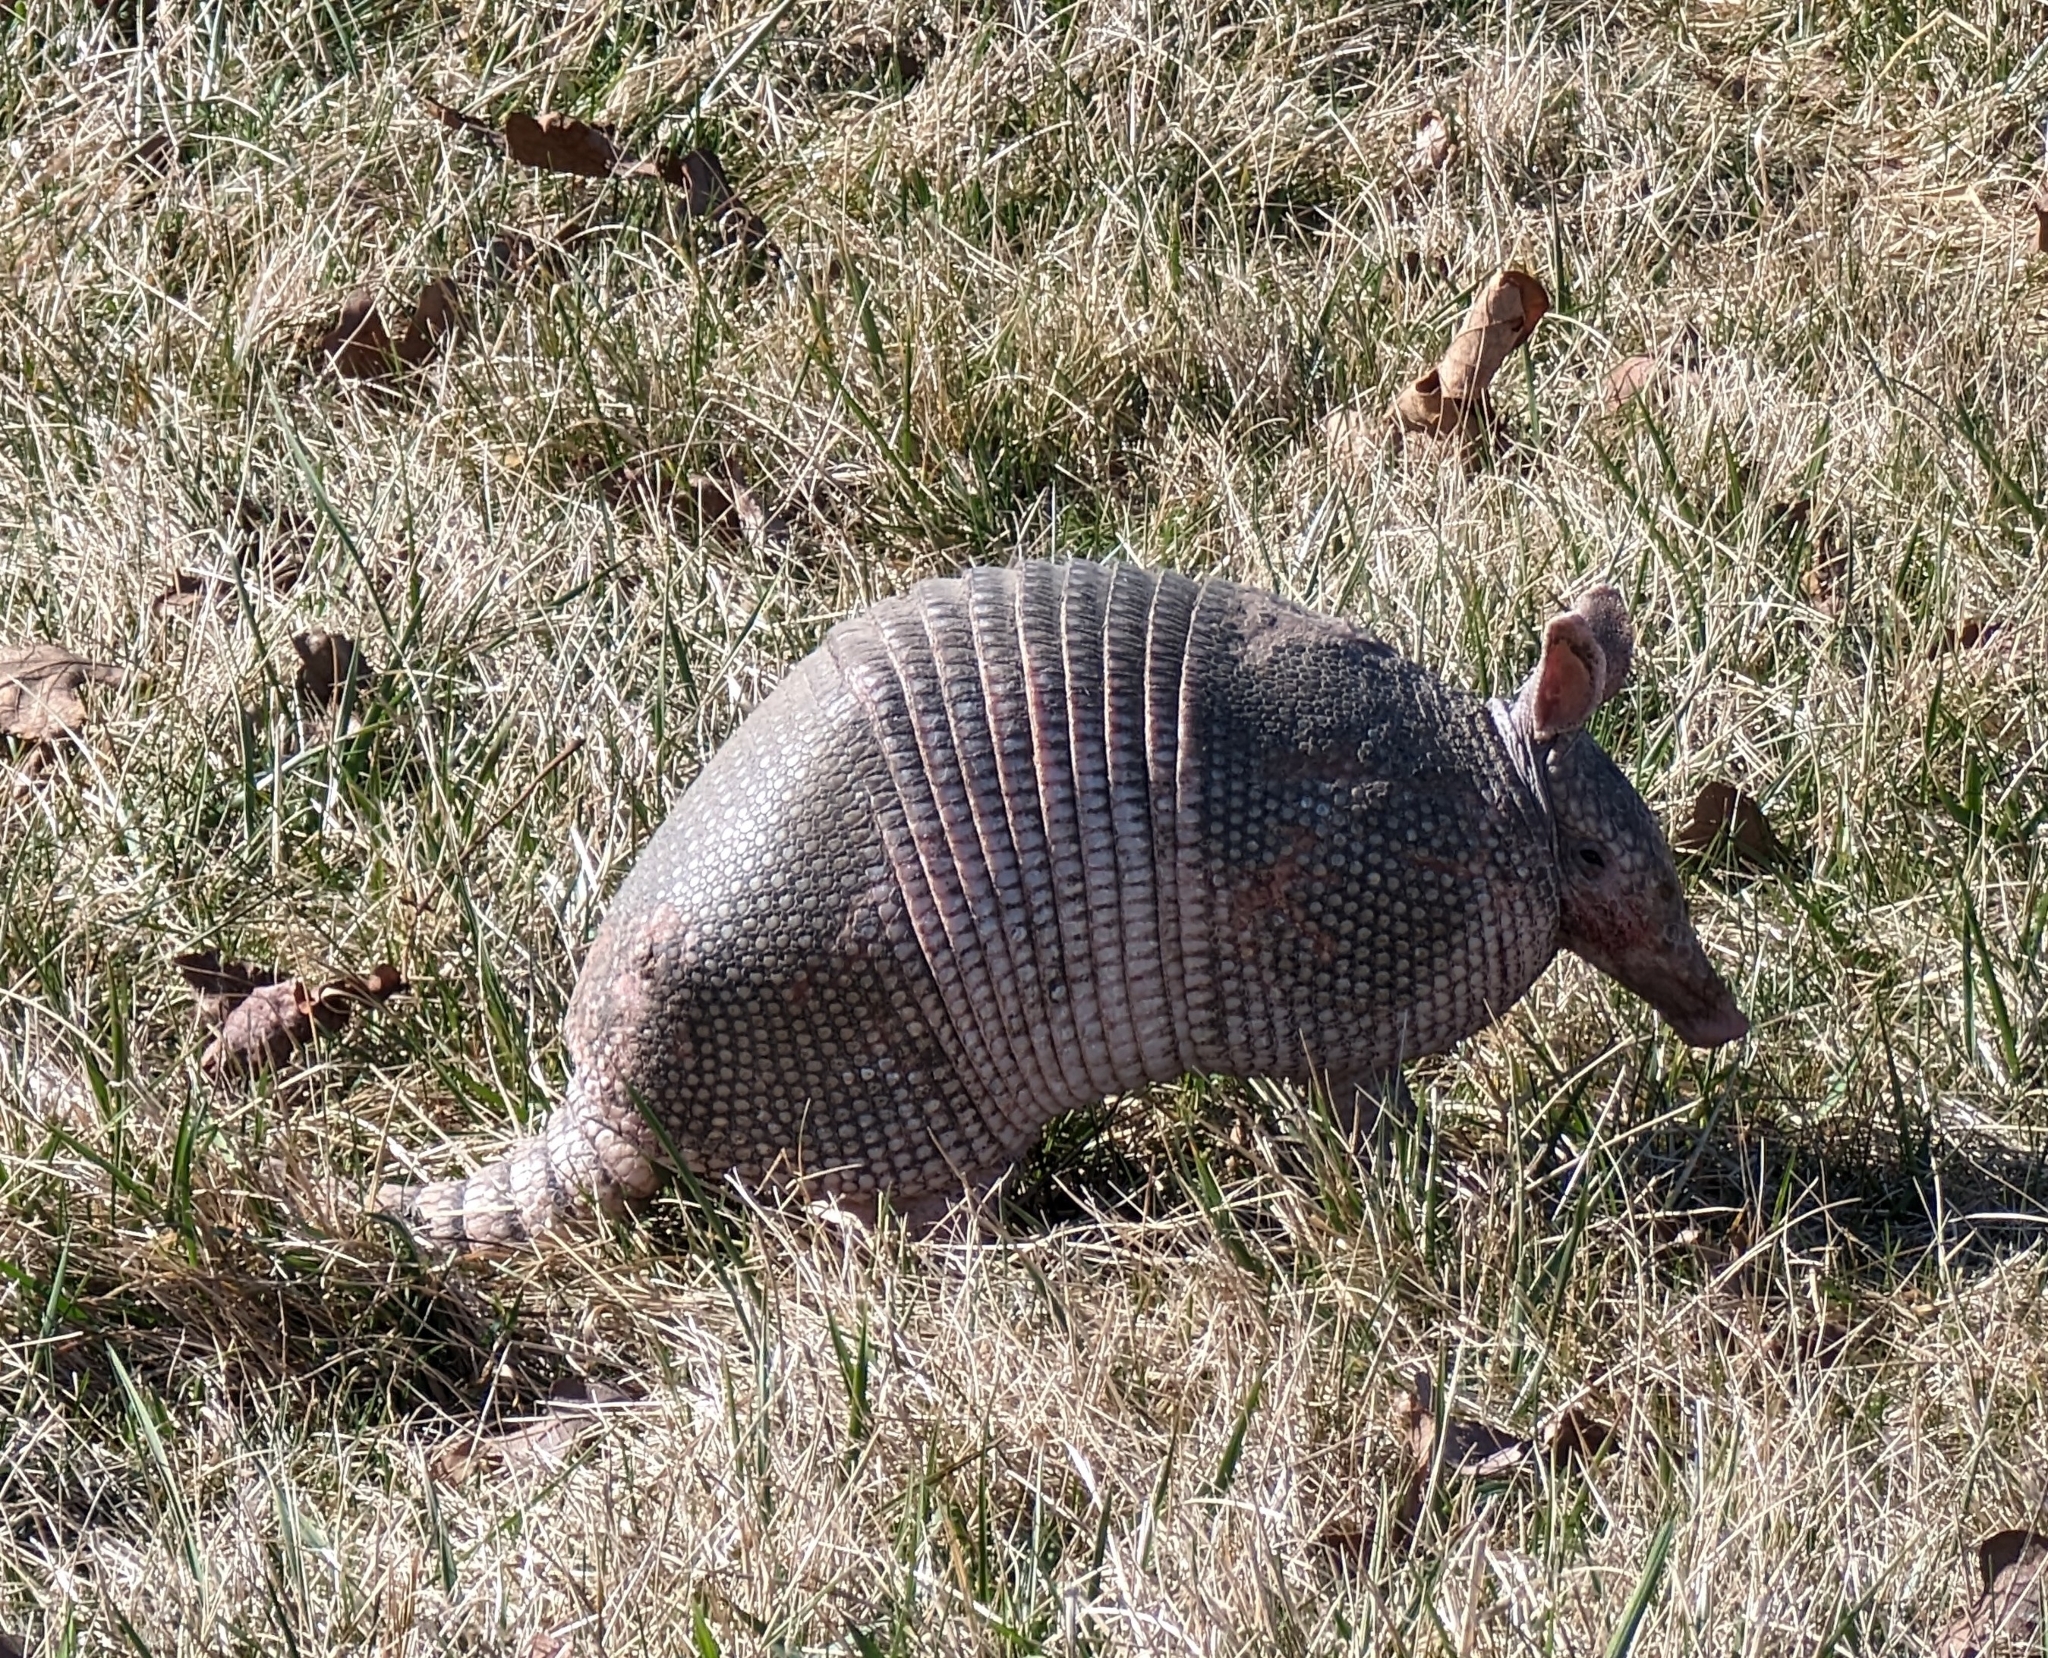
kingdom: Animalia
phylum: Chordata
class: Mammalia
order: Cingulata
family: Dasypodidae
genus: Dasypus
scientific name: Dasypus novemcinctus
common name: Nine-banded armadillo
